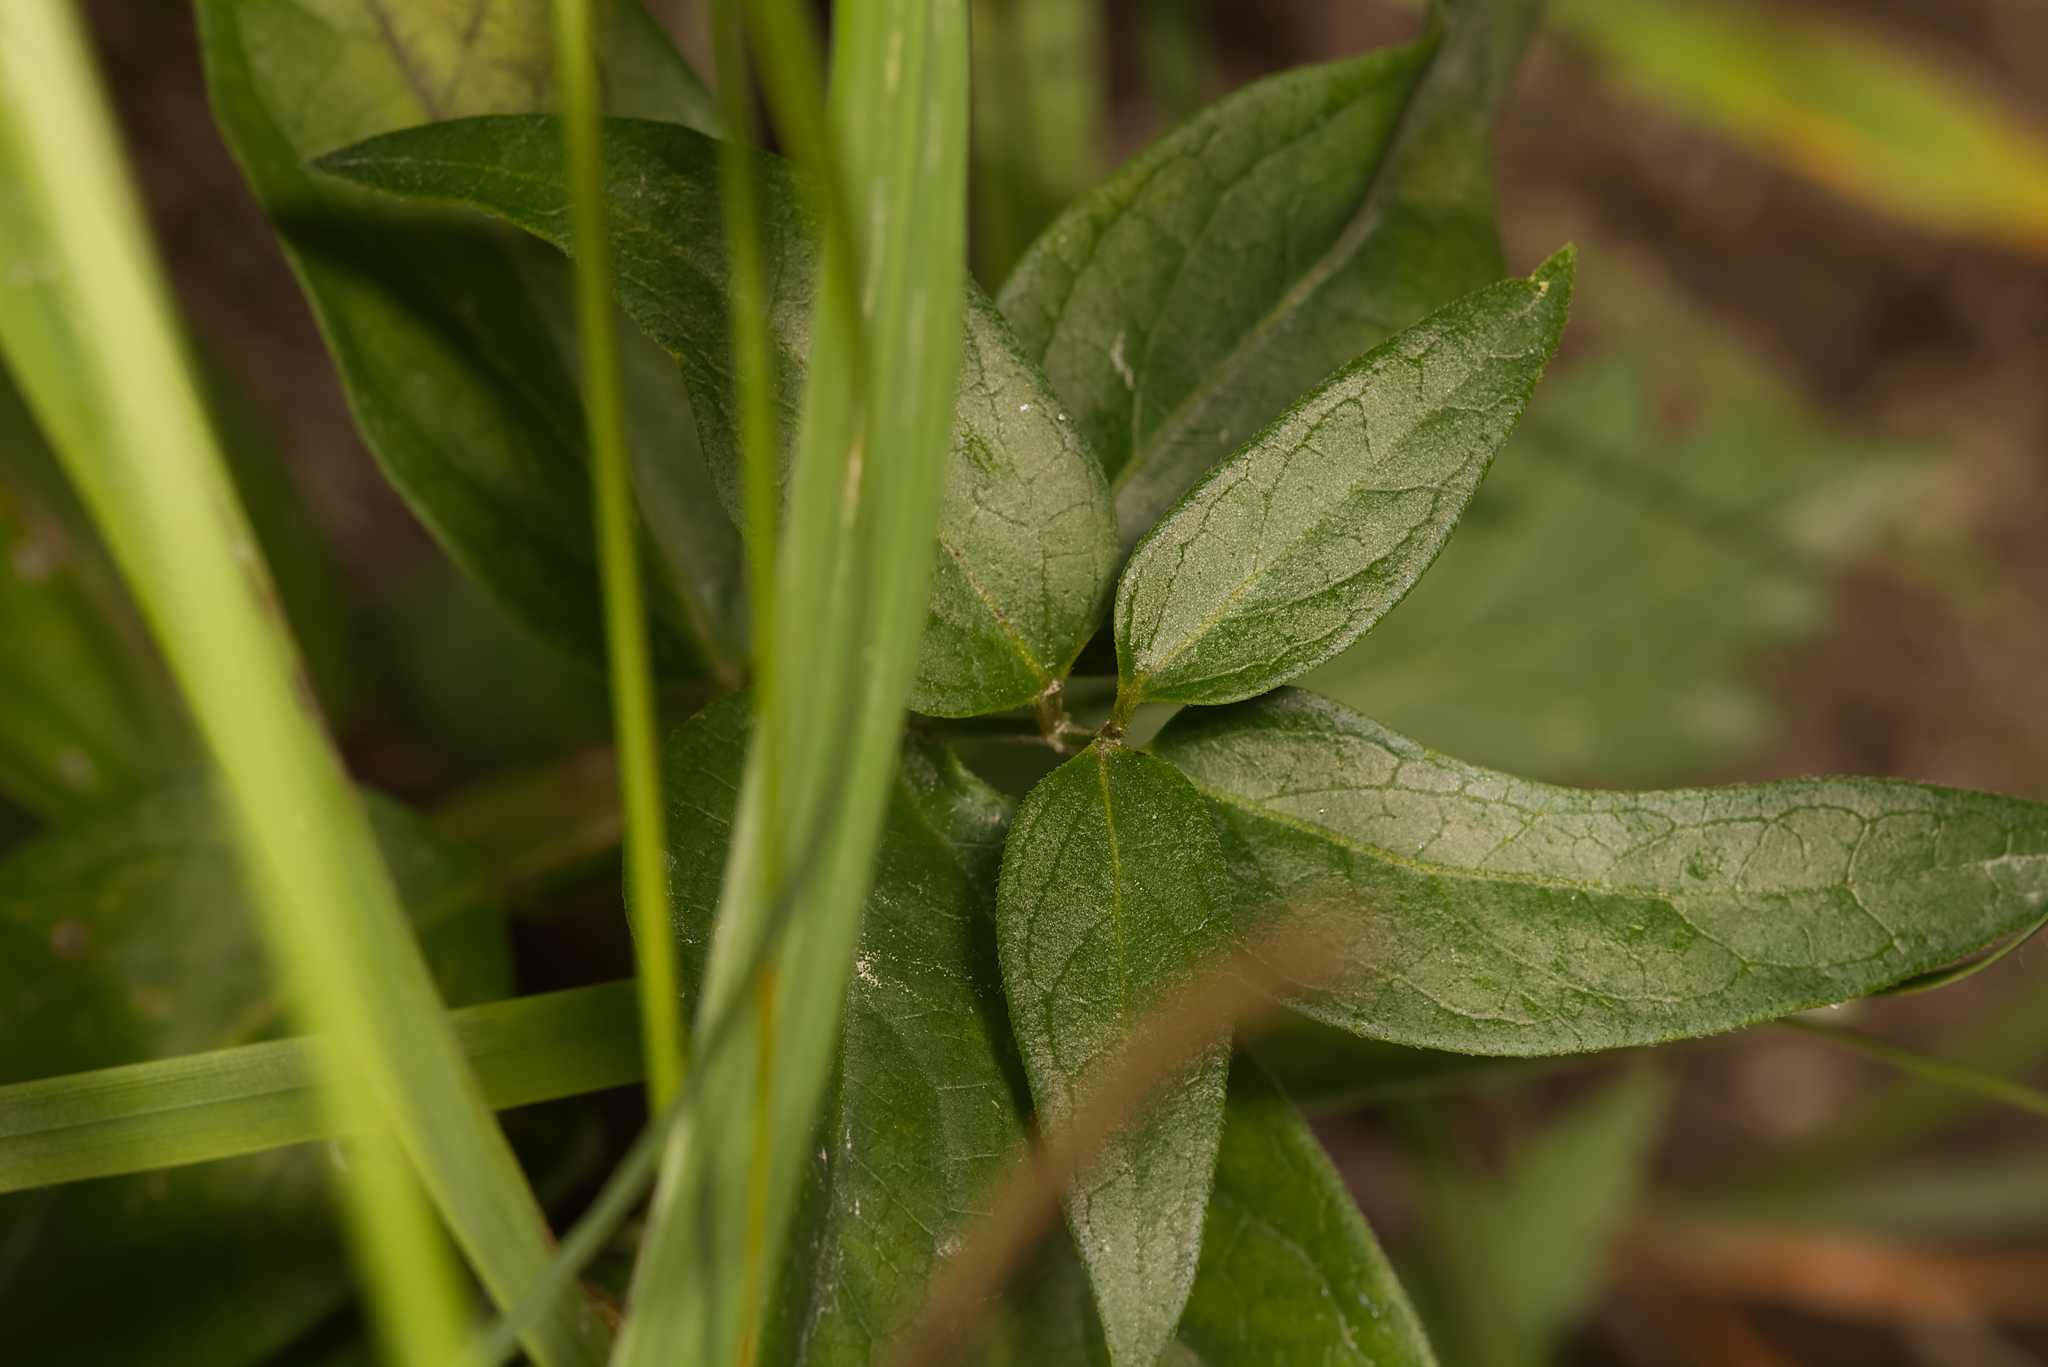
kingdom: Plantae
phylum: Tracheophyta
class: Magnoliopsida
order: Gentianales
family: Apocynaceae
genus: Vincetoxicum
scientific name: Vincetoxicum hirundinaria
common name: White swallowwort
